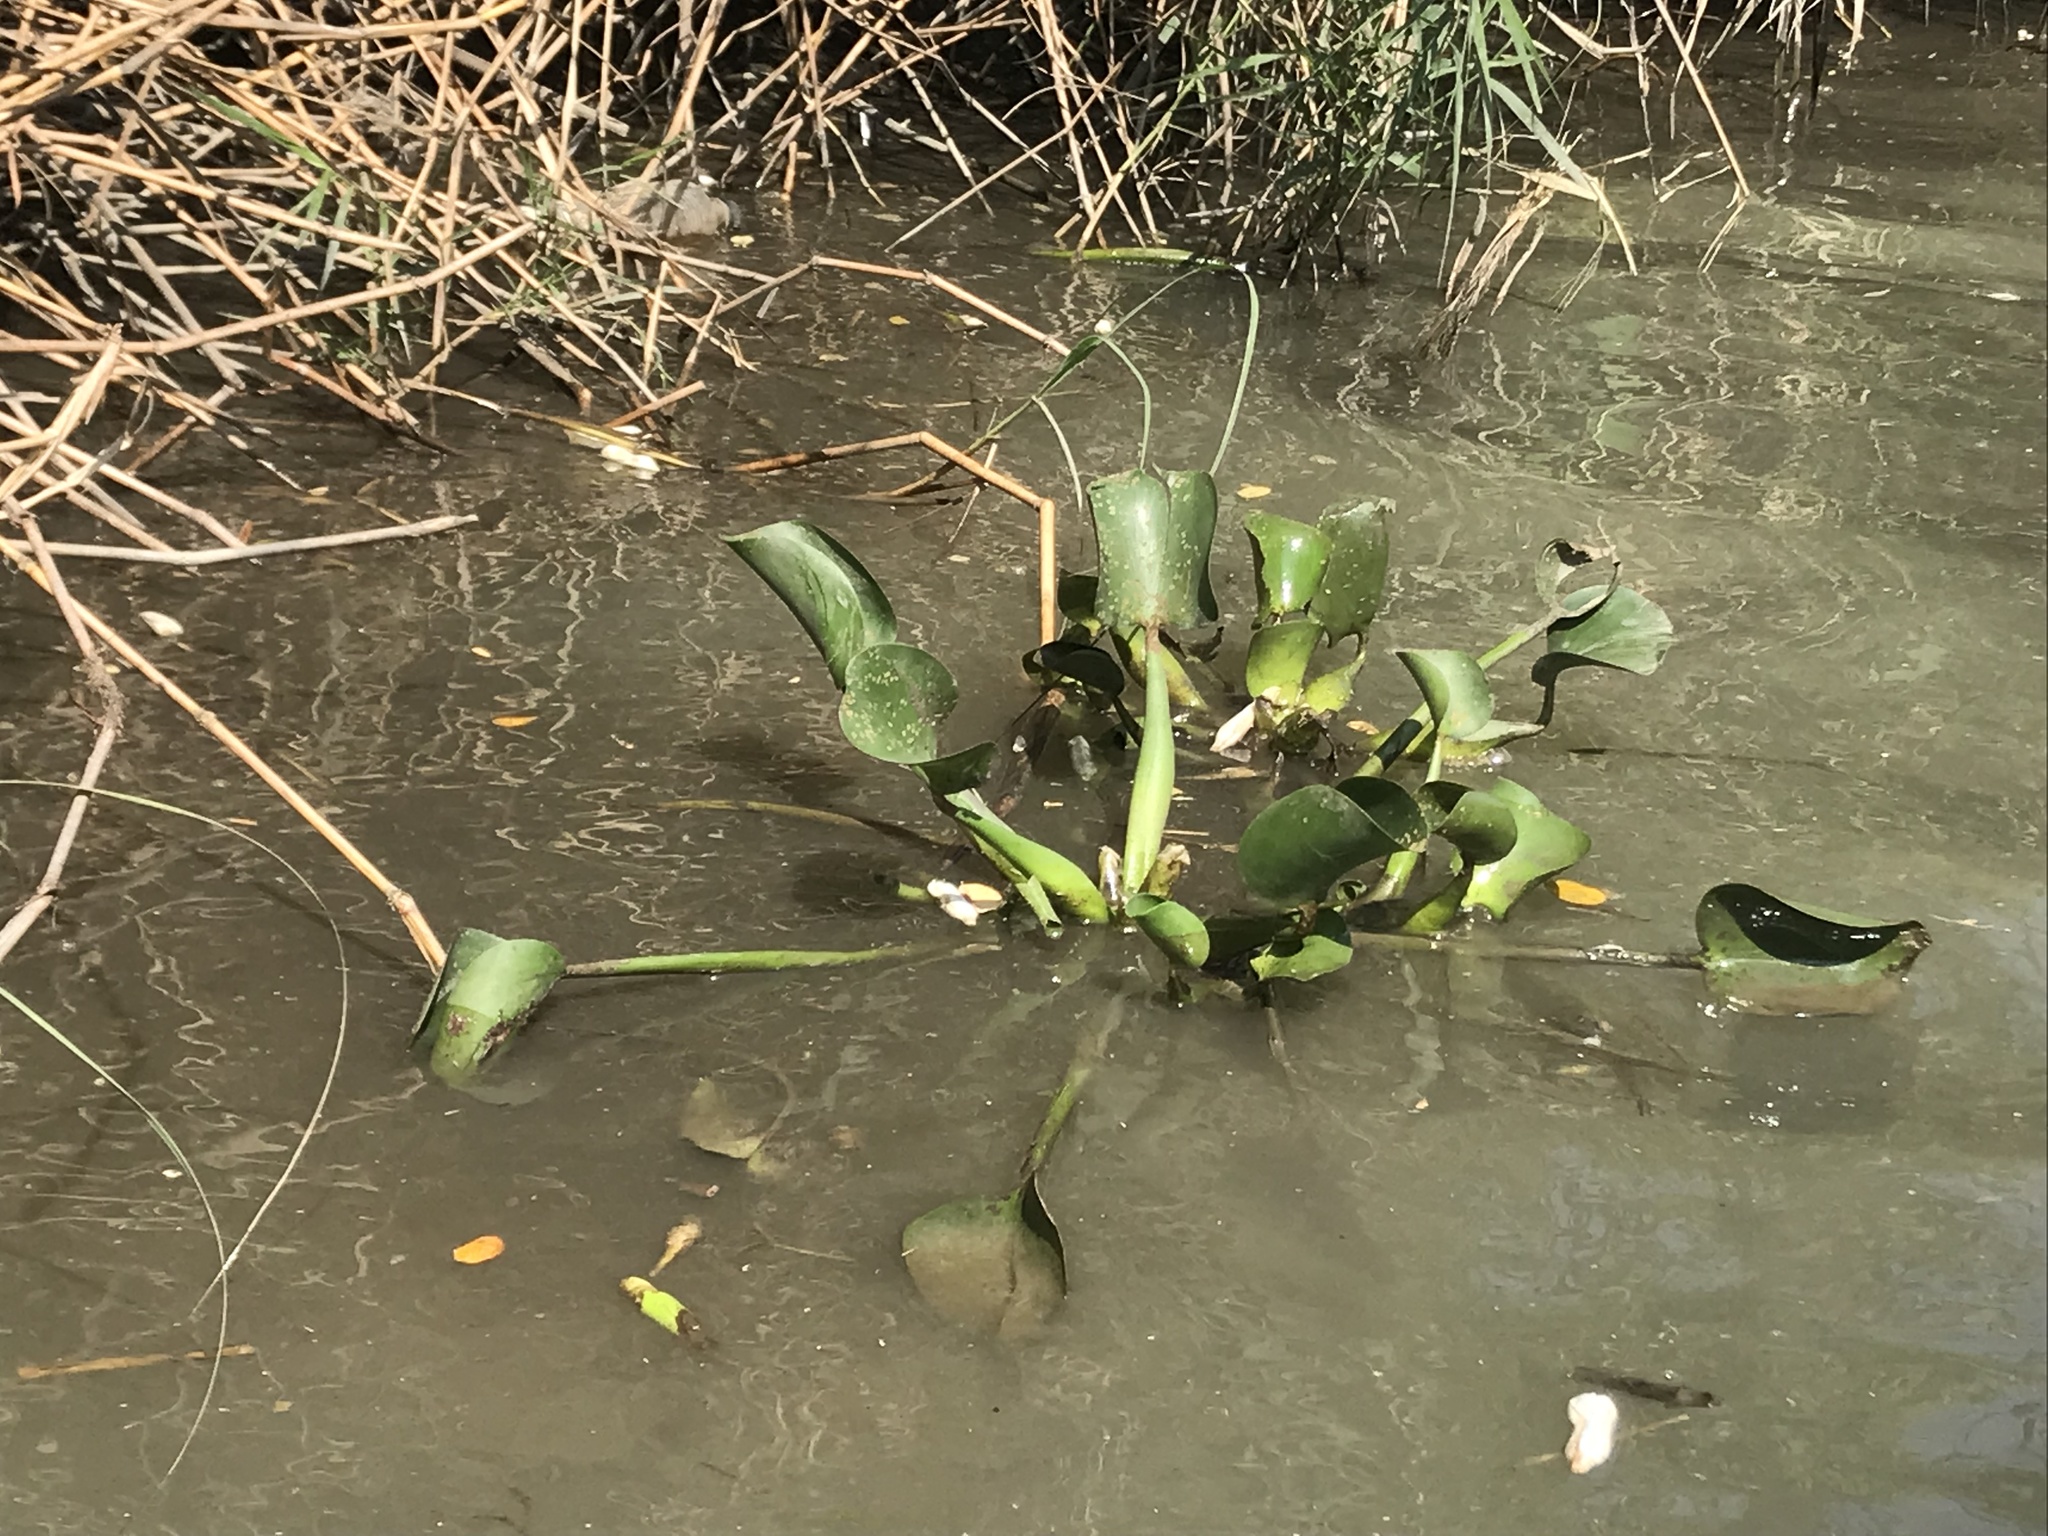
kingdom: Plantae
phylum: Tracheophyta
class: Liliopsida
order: Commelinales
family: Pontederiaceae
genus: Pontederia
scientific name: Pontederia crassipes
